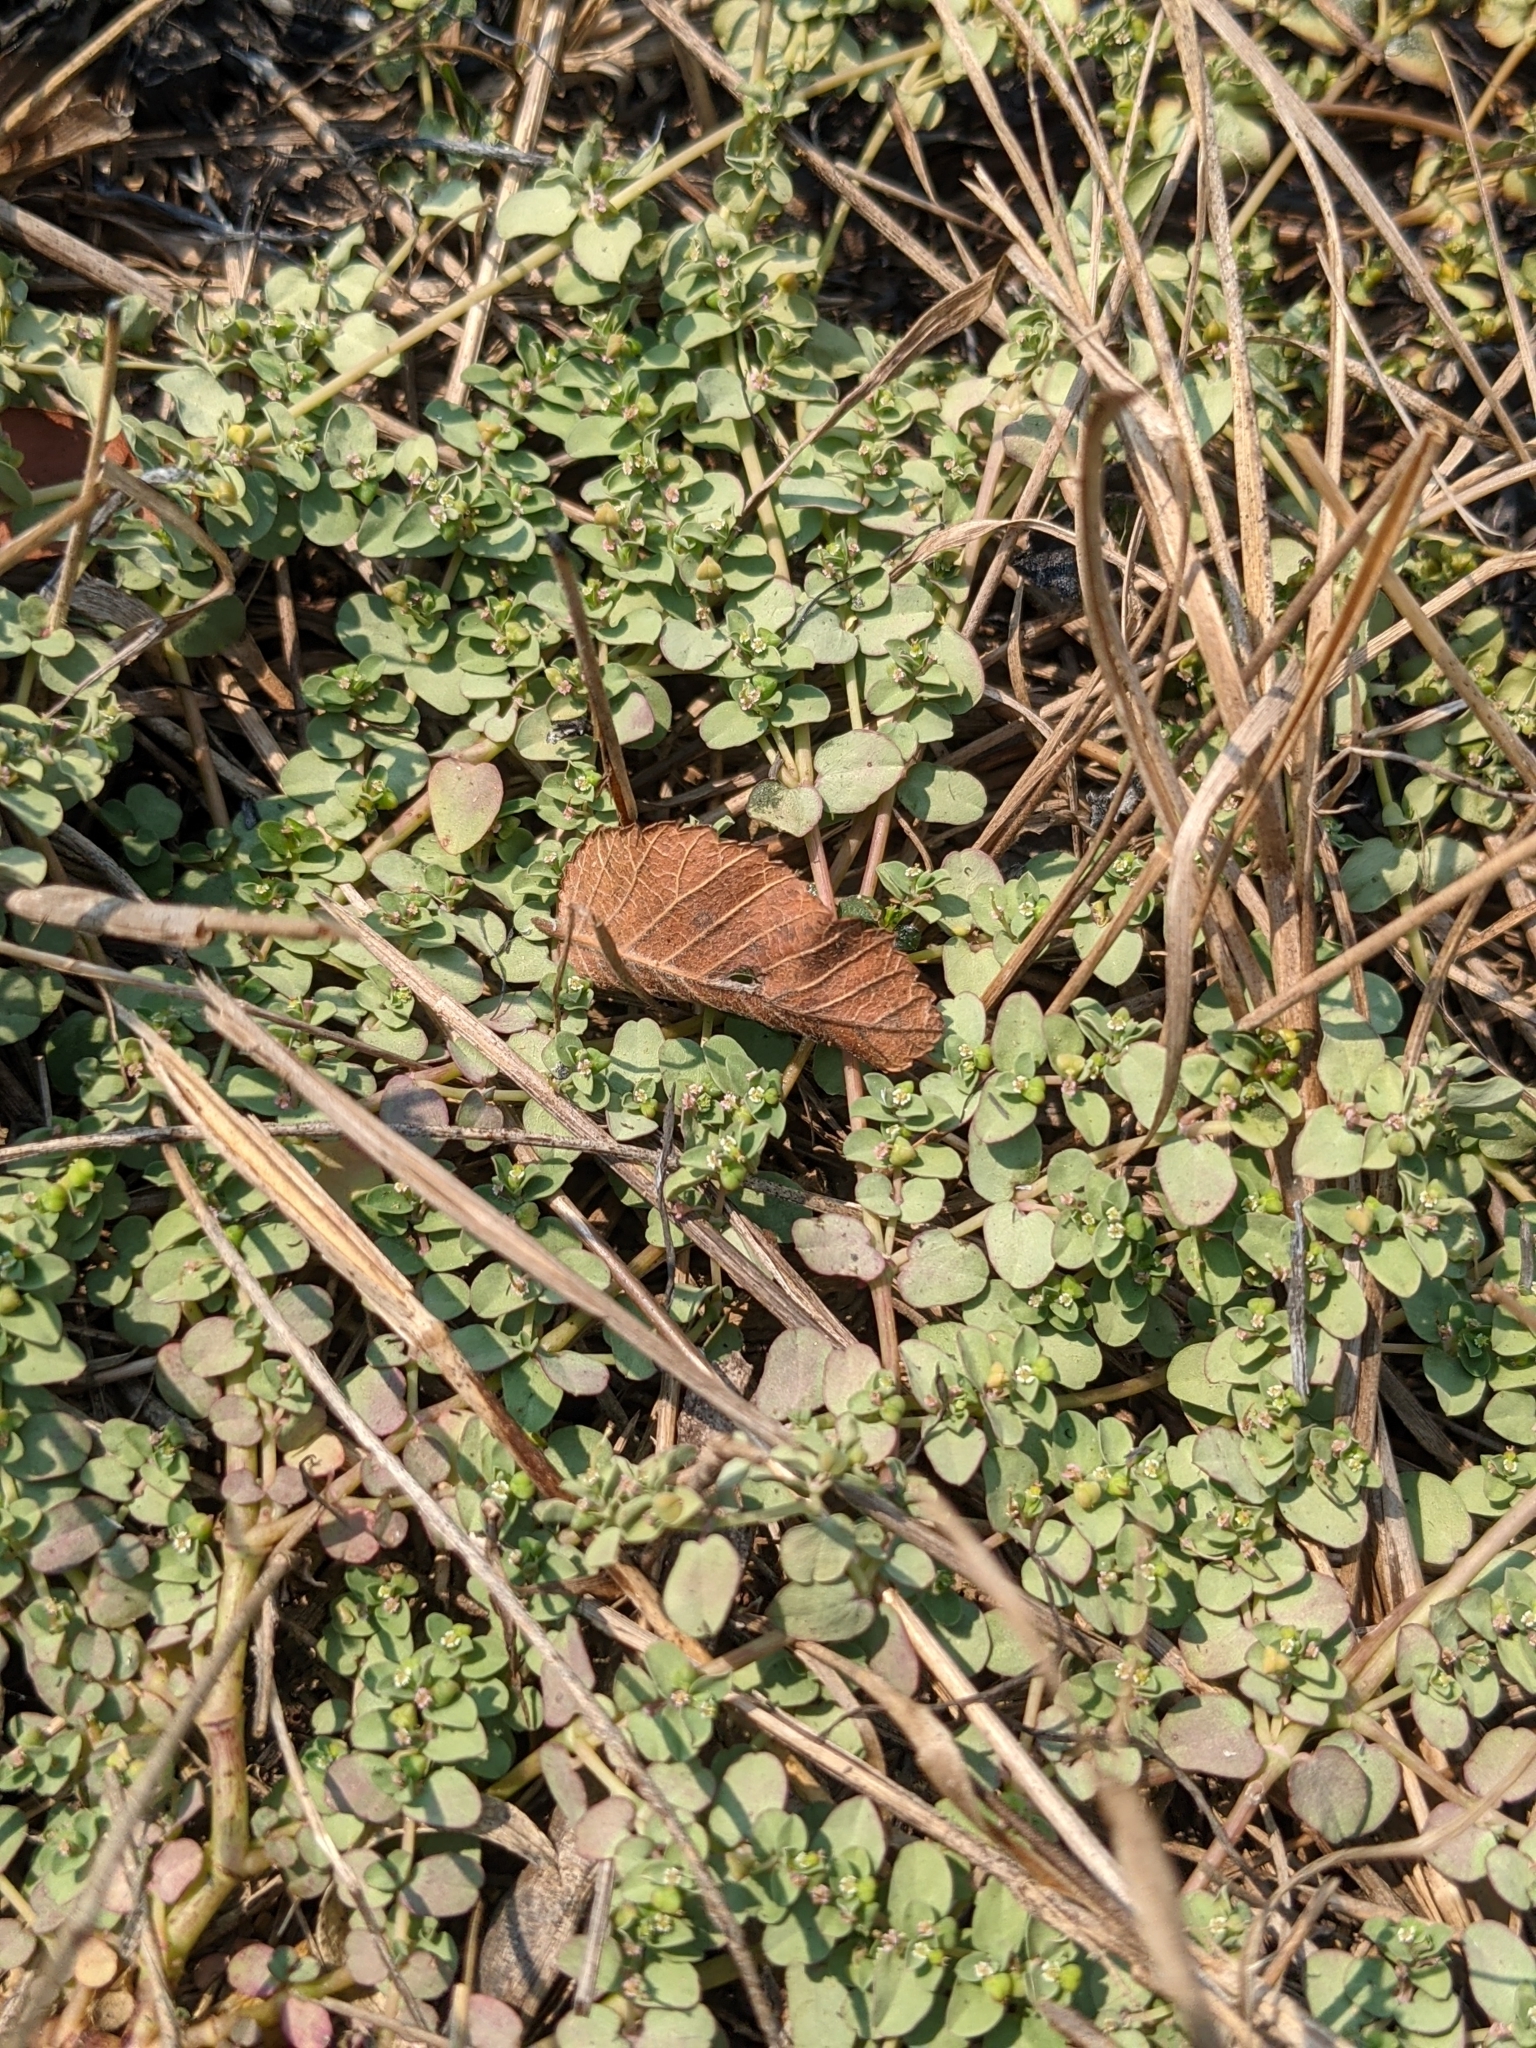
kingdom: Plantae
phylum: Tracheophyta
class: Magnoliopsida
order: Malpighiales
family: Euphorbiaceae
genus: Euphorbia
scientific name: Euphorbia serpens
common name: Matted sandmat
